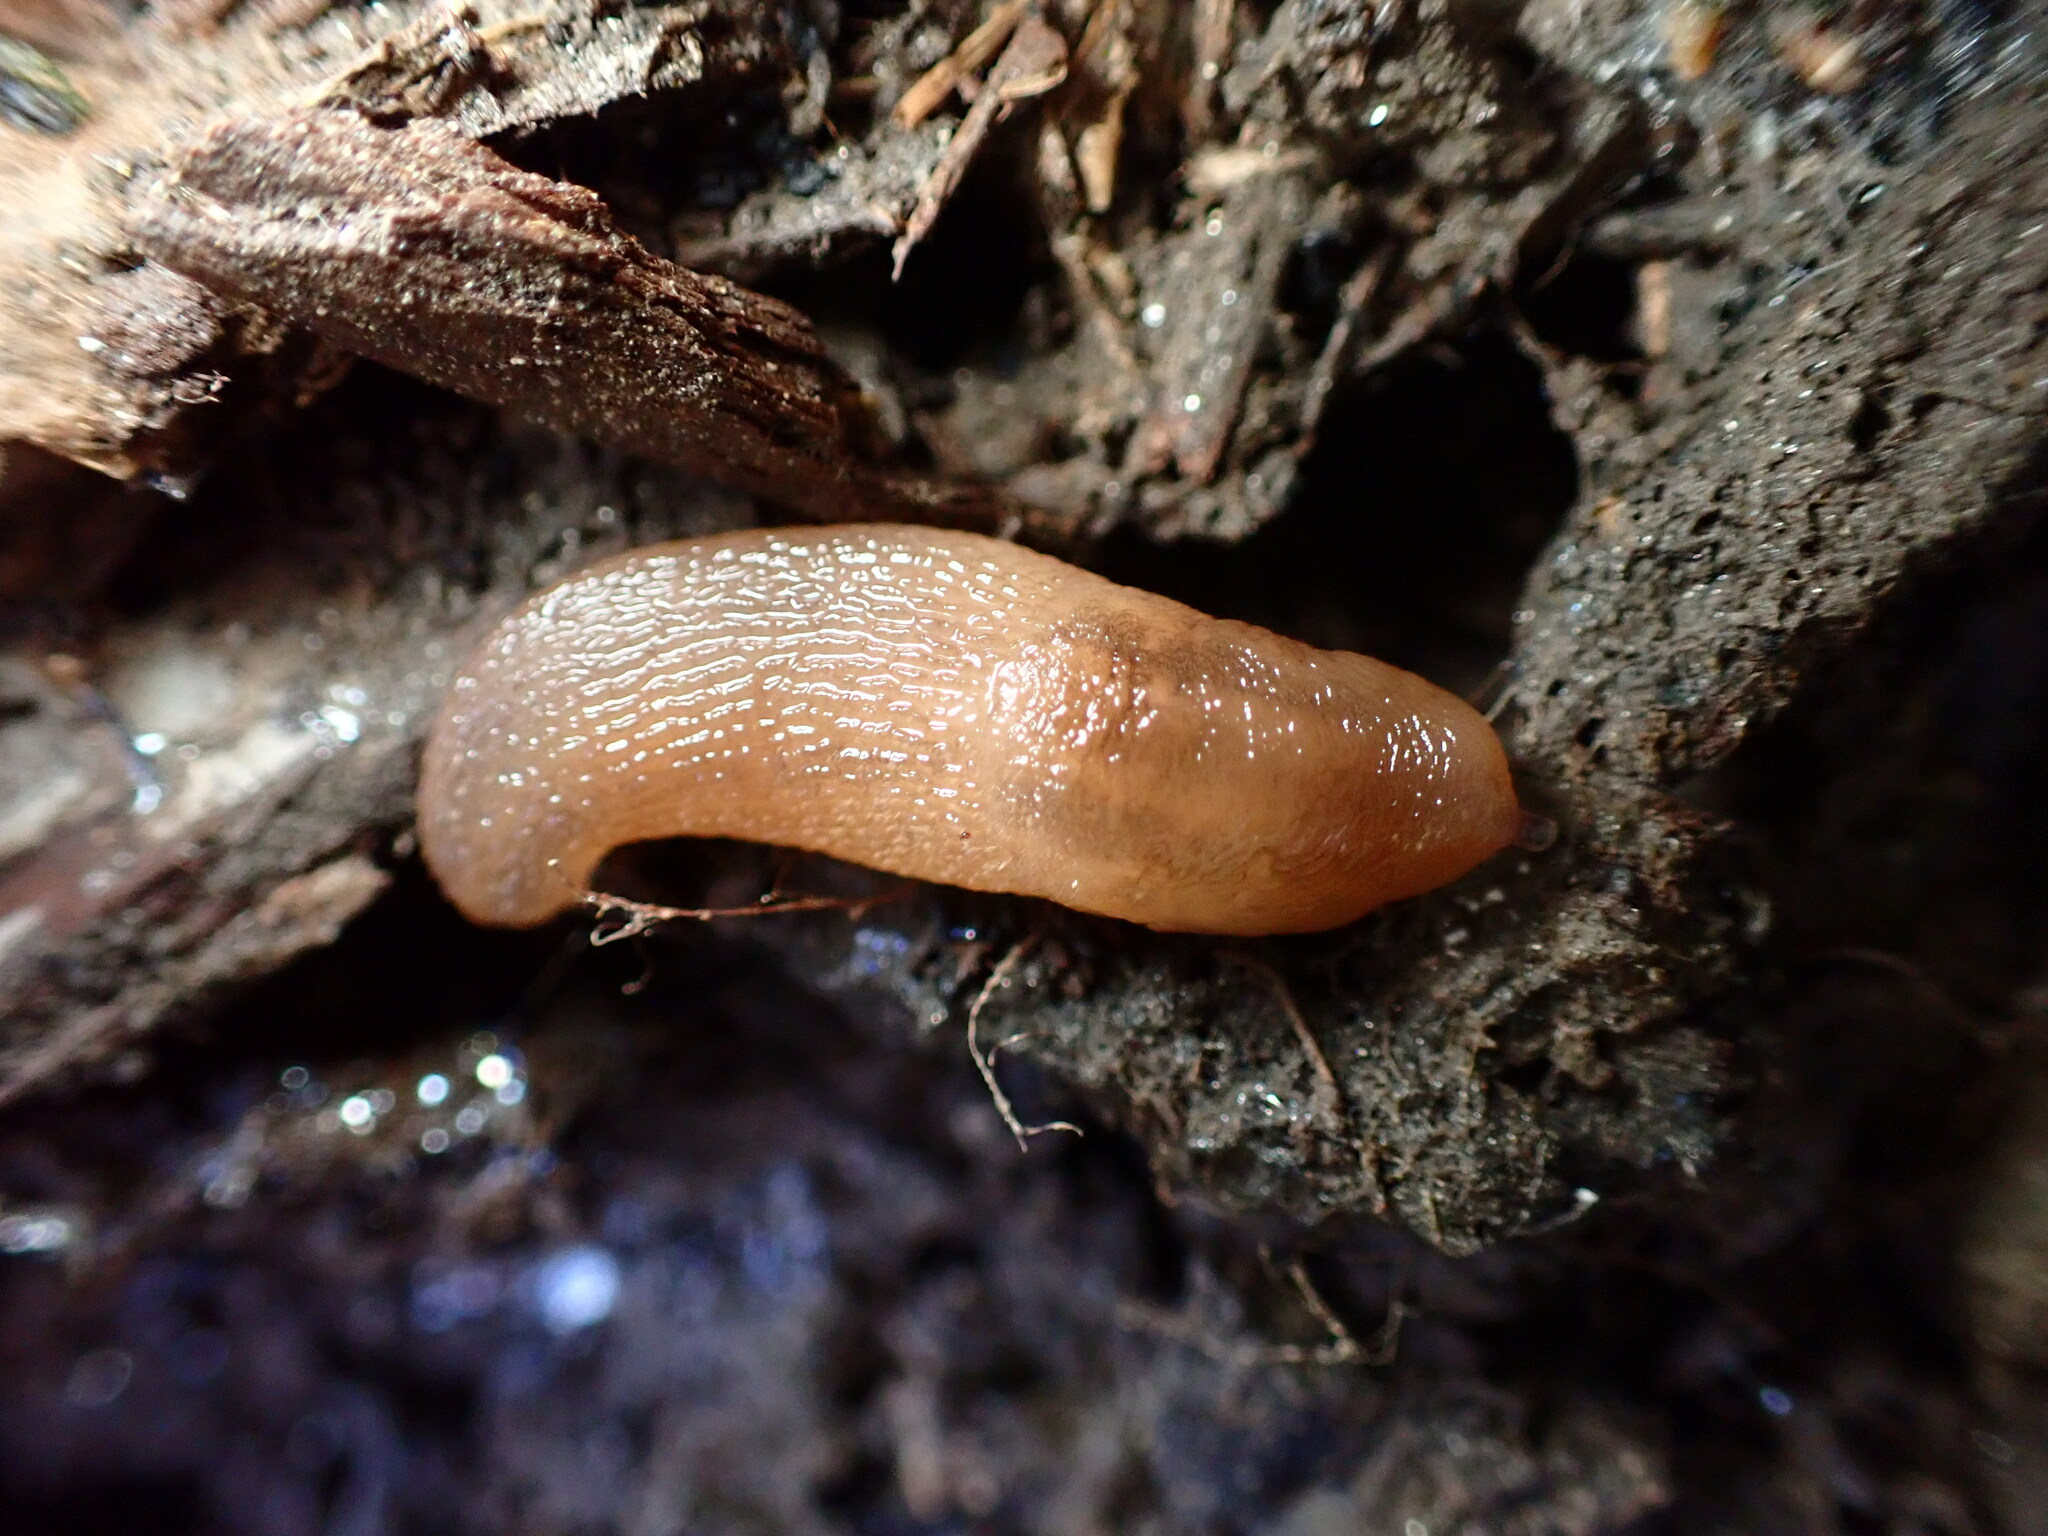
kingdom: Animalia
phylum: Mollusca
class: Gastropoda
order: Stylommatophora
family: Limacidae
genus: Ambigolimax
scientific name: Ambigolimax
